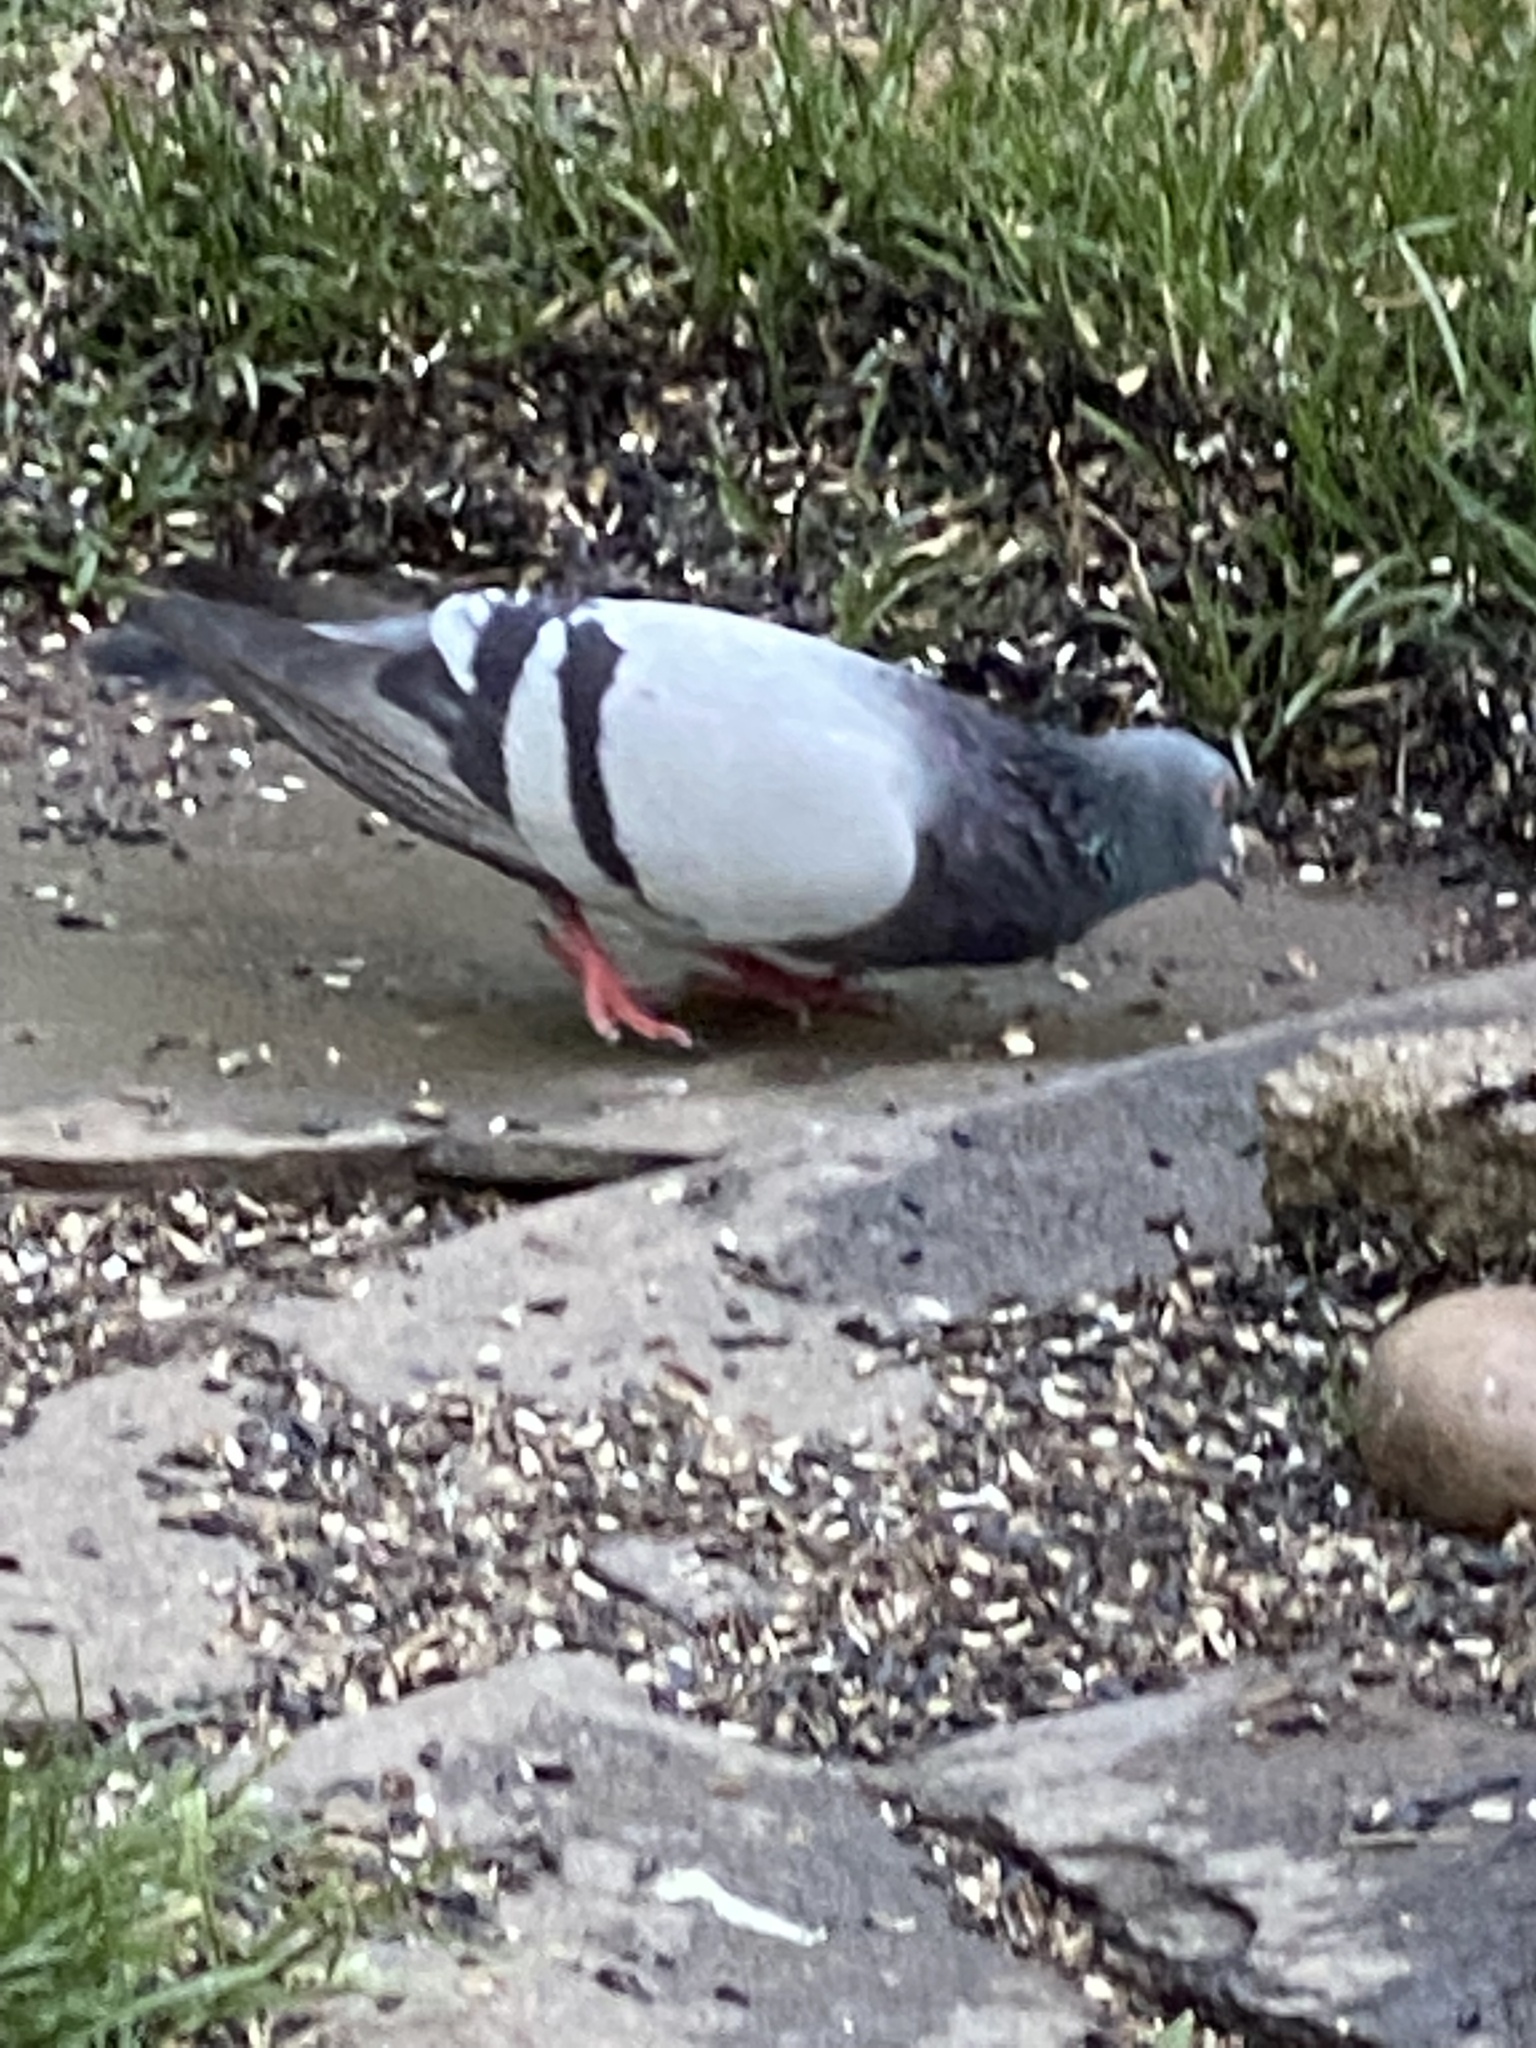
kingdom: Animalia
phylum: Chordata
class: Aves
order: Columbiformes
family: Columbidae
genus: Columba
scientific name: Columba livia
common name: Rock pigeon
